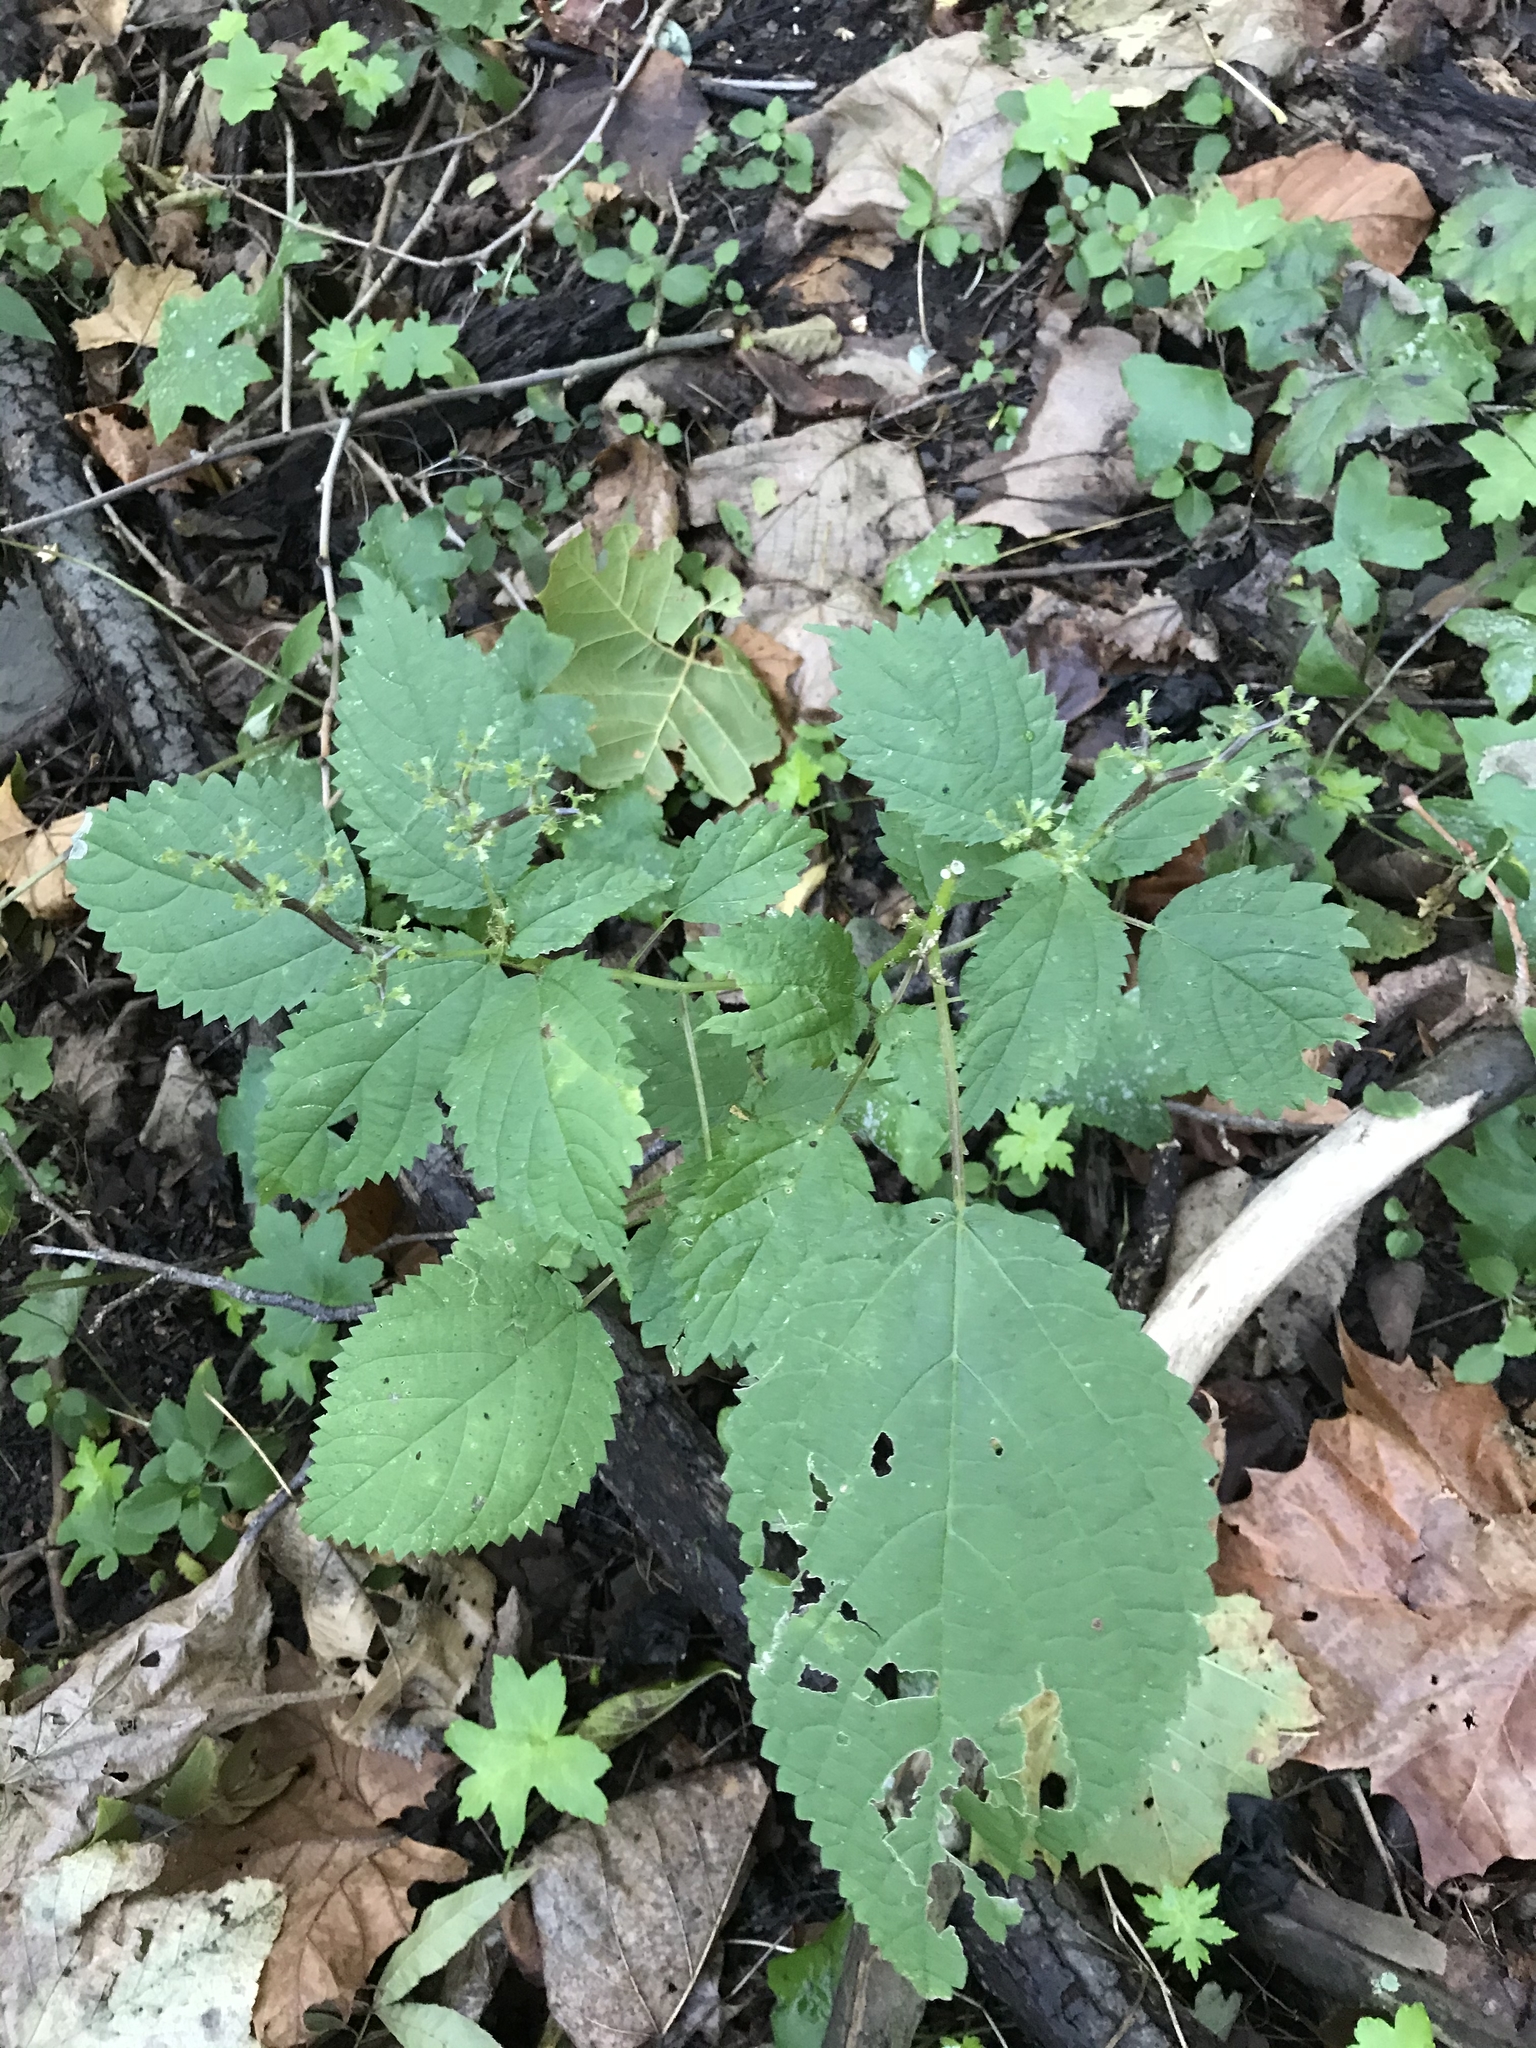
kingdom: Plantae
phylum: Tracheophyta
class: Magnoliopsida
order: Rosales
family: Urticaceae
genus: Laportea
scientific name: Laportea canadensis
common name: Canada nettle
